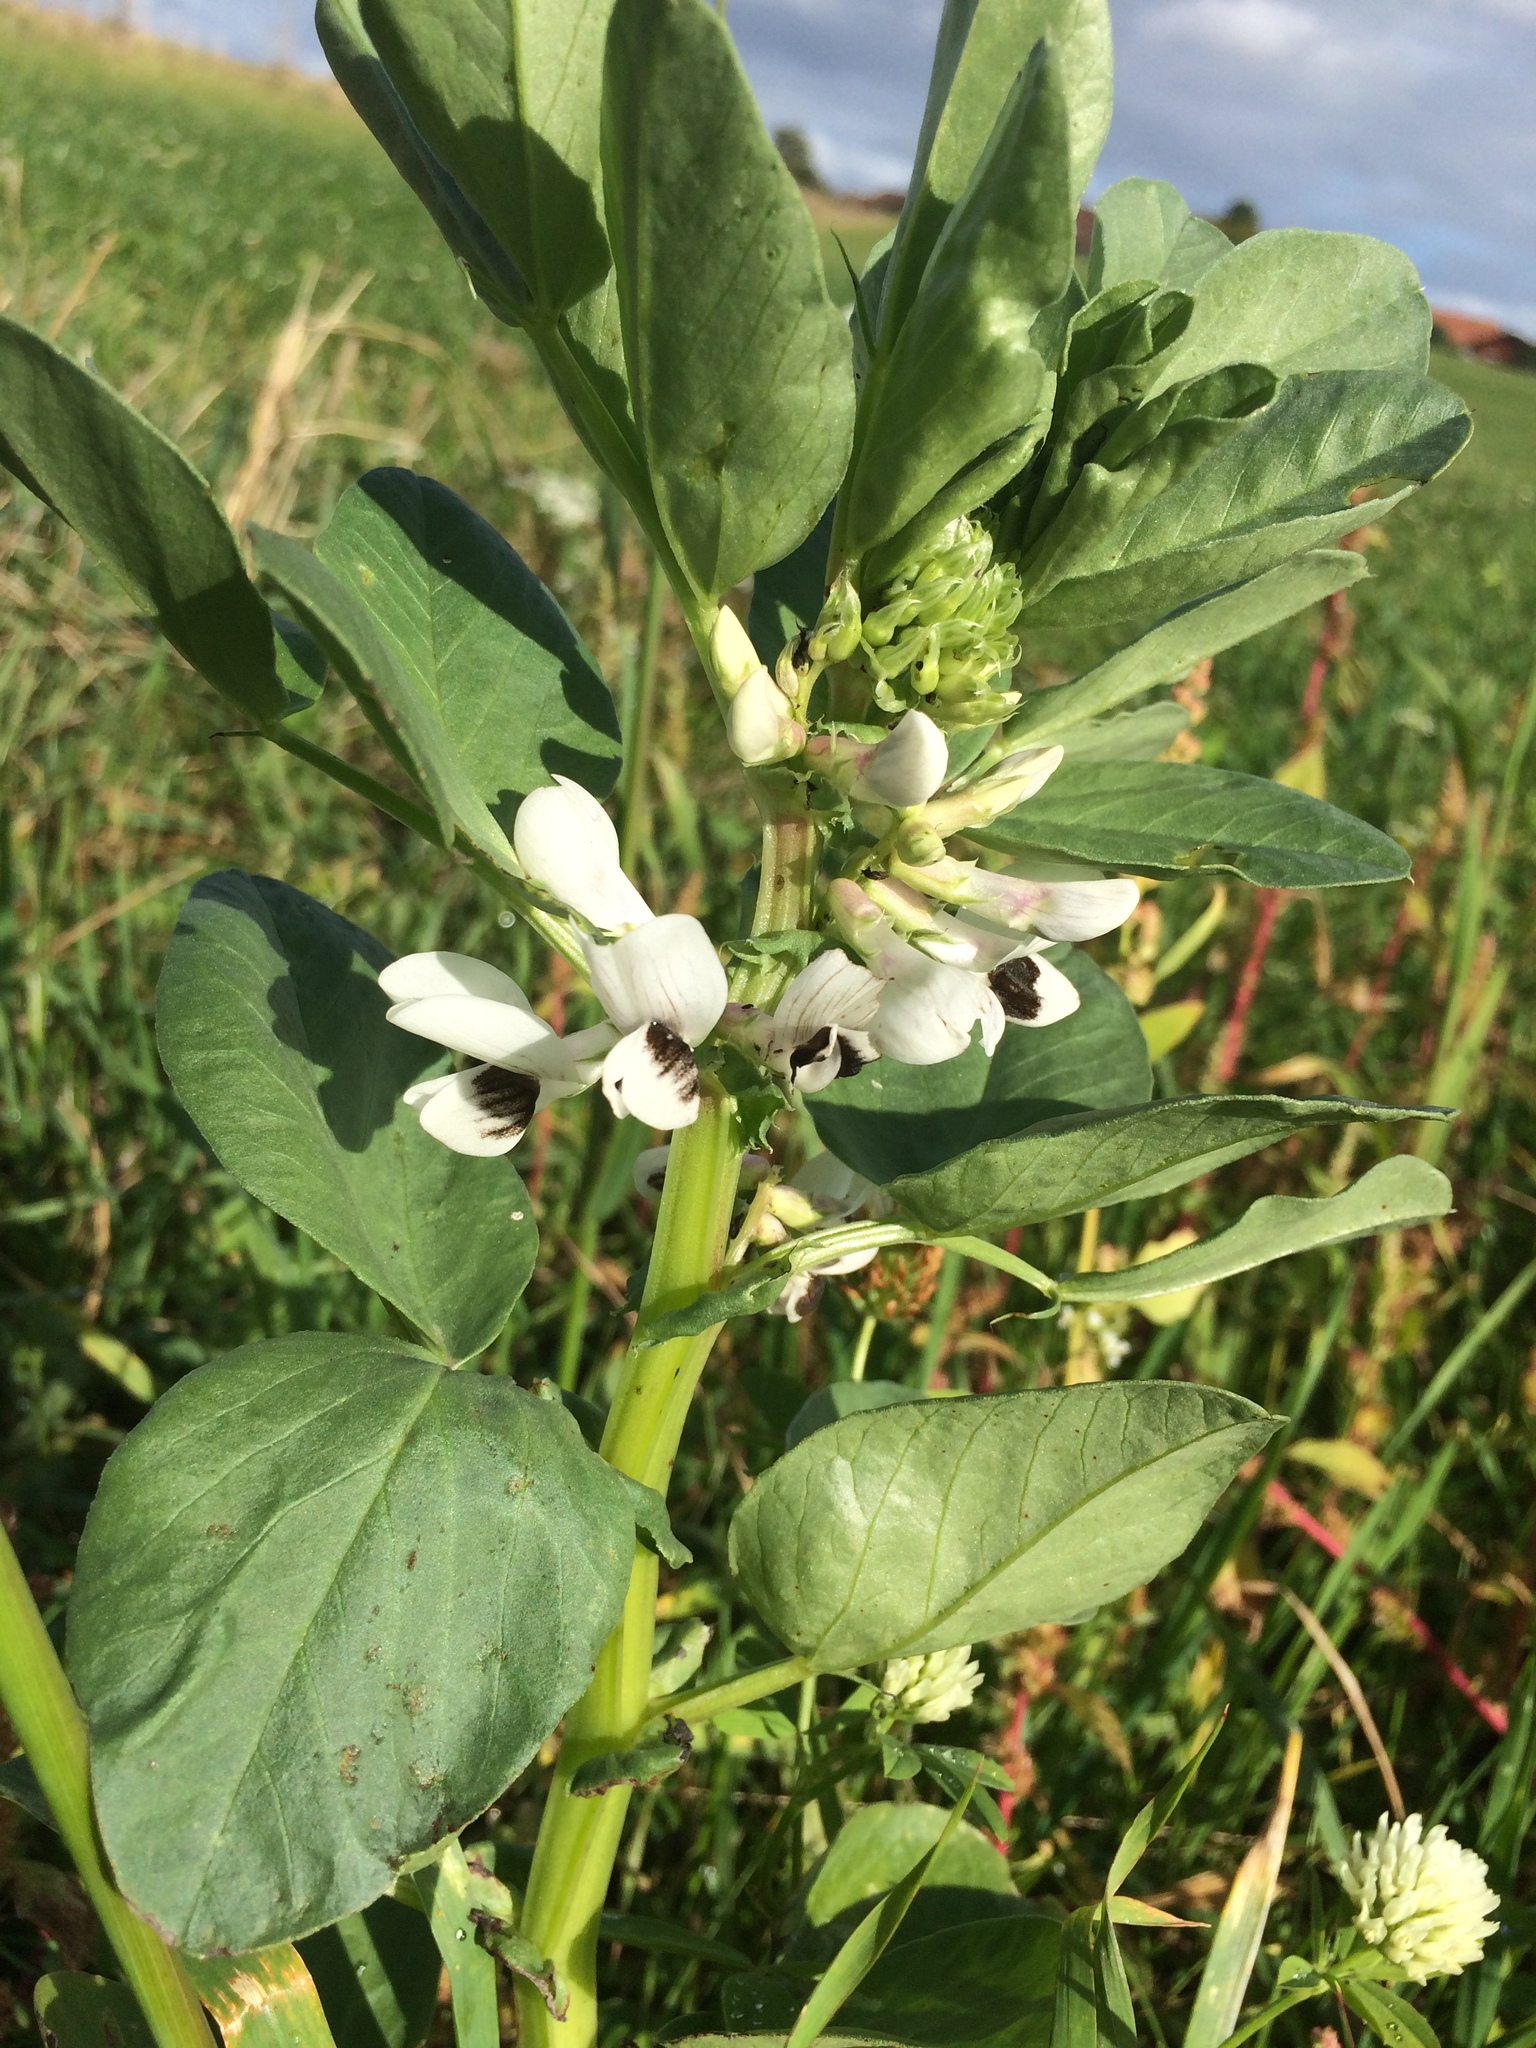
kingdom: Plantae
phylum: Tracheophyta
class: Magnoliopsida
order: Fabales
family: Fabaceae
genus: Vicia
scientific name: Vicia faba
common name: Broad bean
